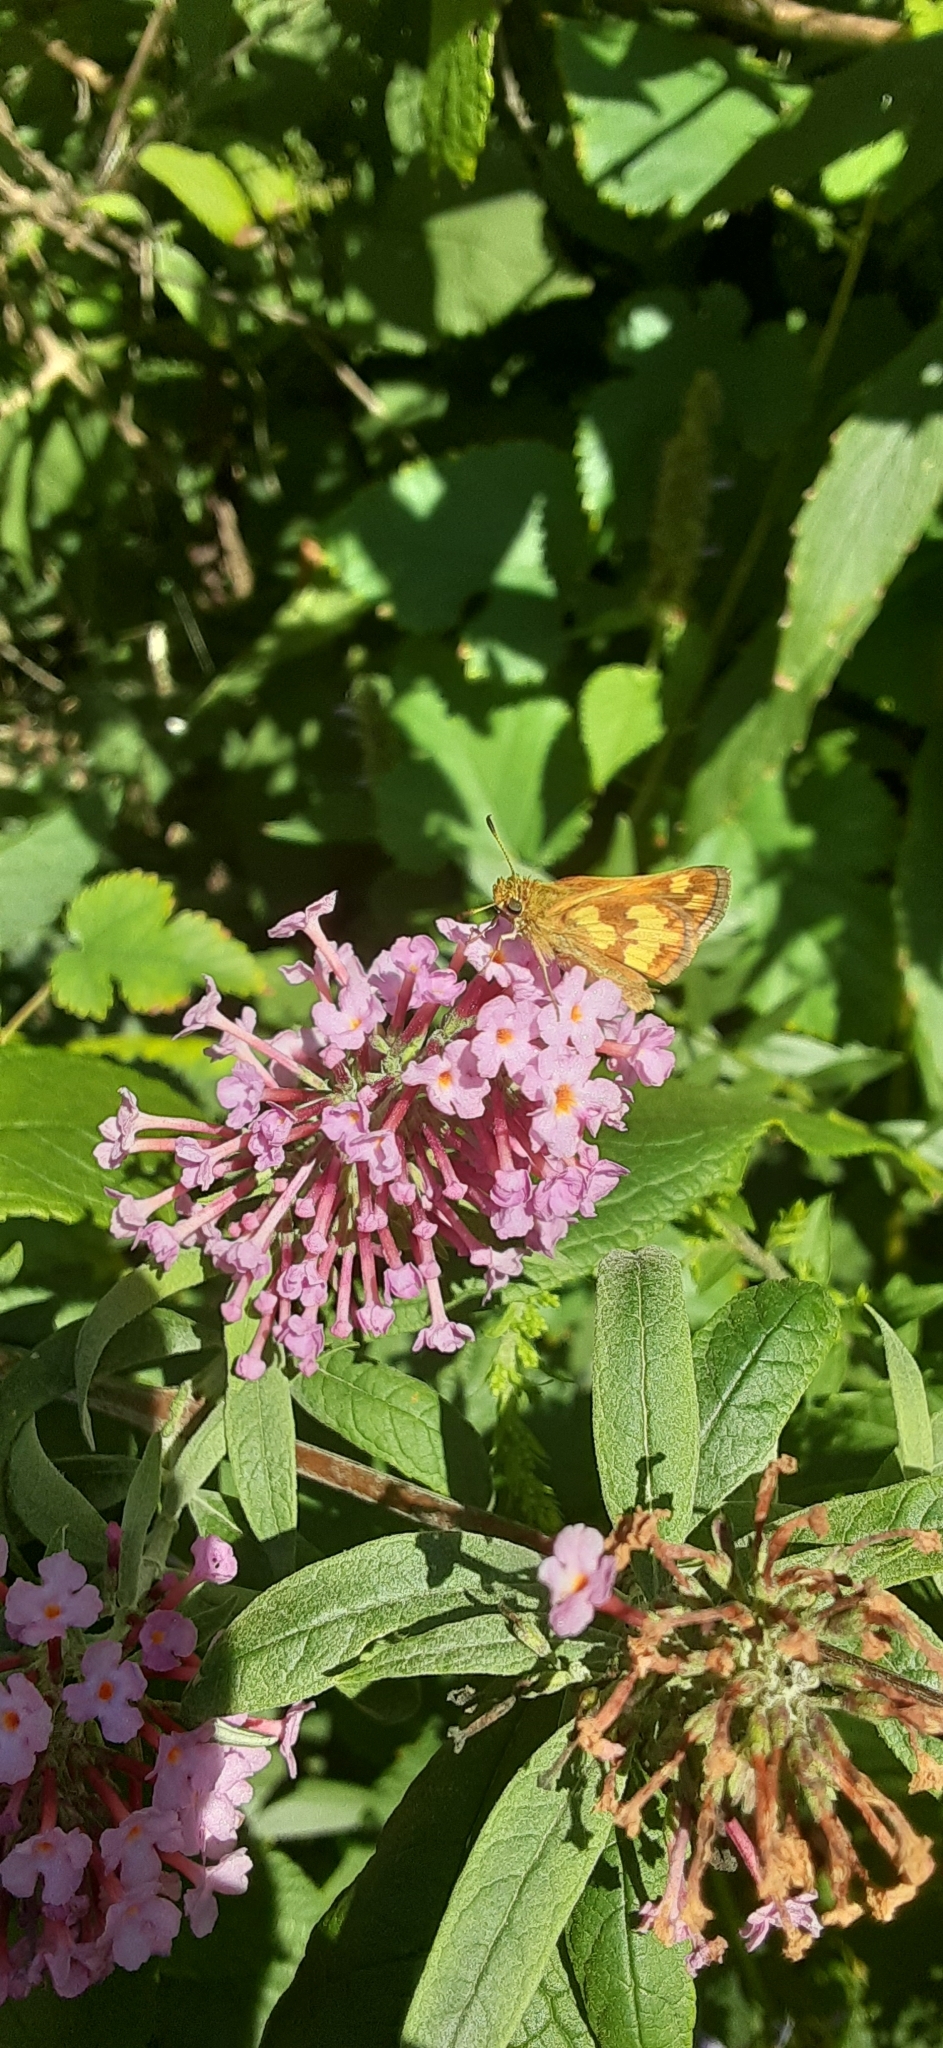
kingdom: Animalia
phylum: Arthropoda
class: Insecta
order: Lepidoptera
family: Hesperiidae
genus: Polites
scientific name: Polites coras
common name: Peck's skipper
